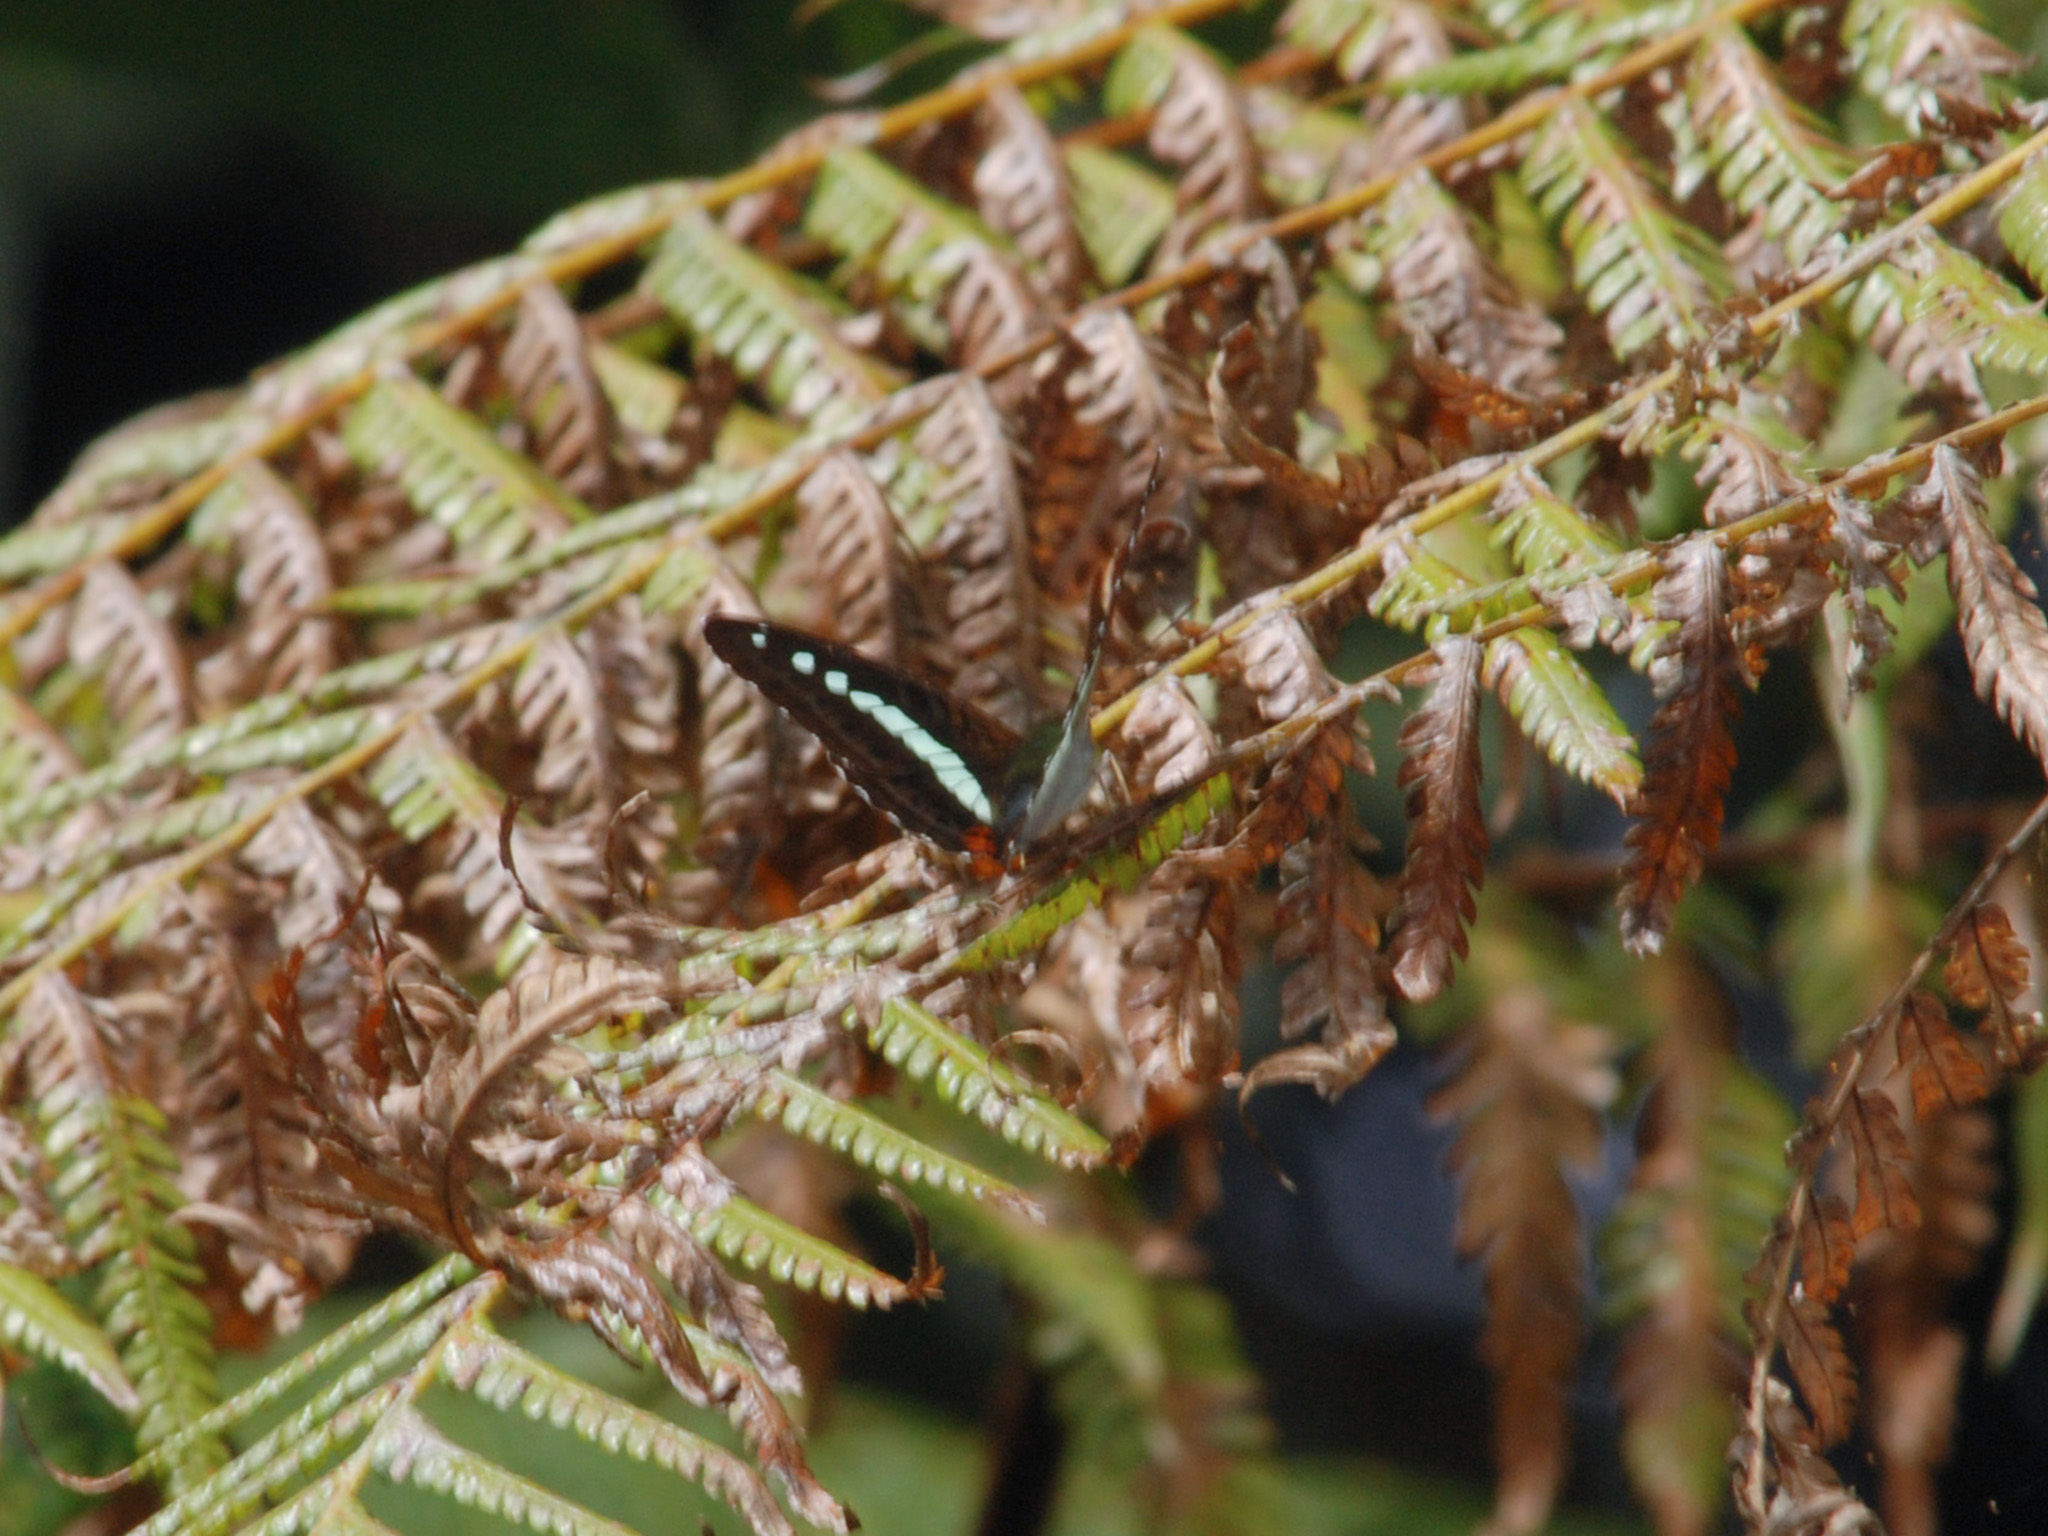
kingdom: Animalia
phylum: Arthropoda
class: Insecta
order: Lepidoptera
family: Nymphalidae
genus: Limenitis
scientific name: Limenitis Sumalia daraxa
